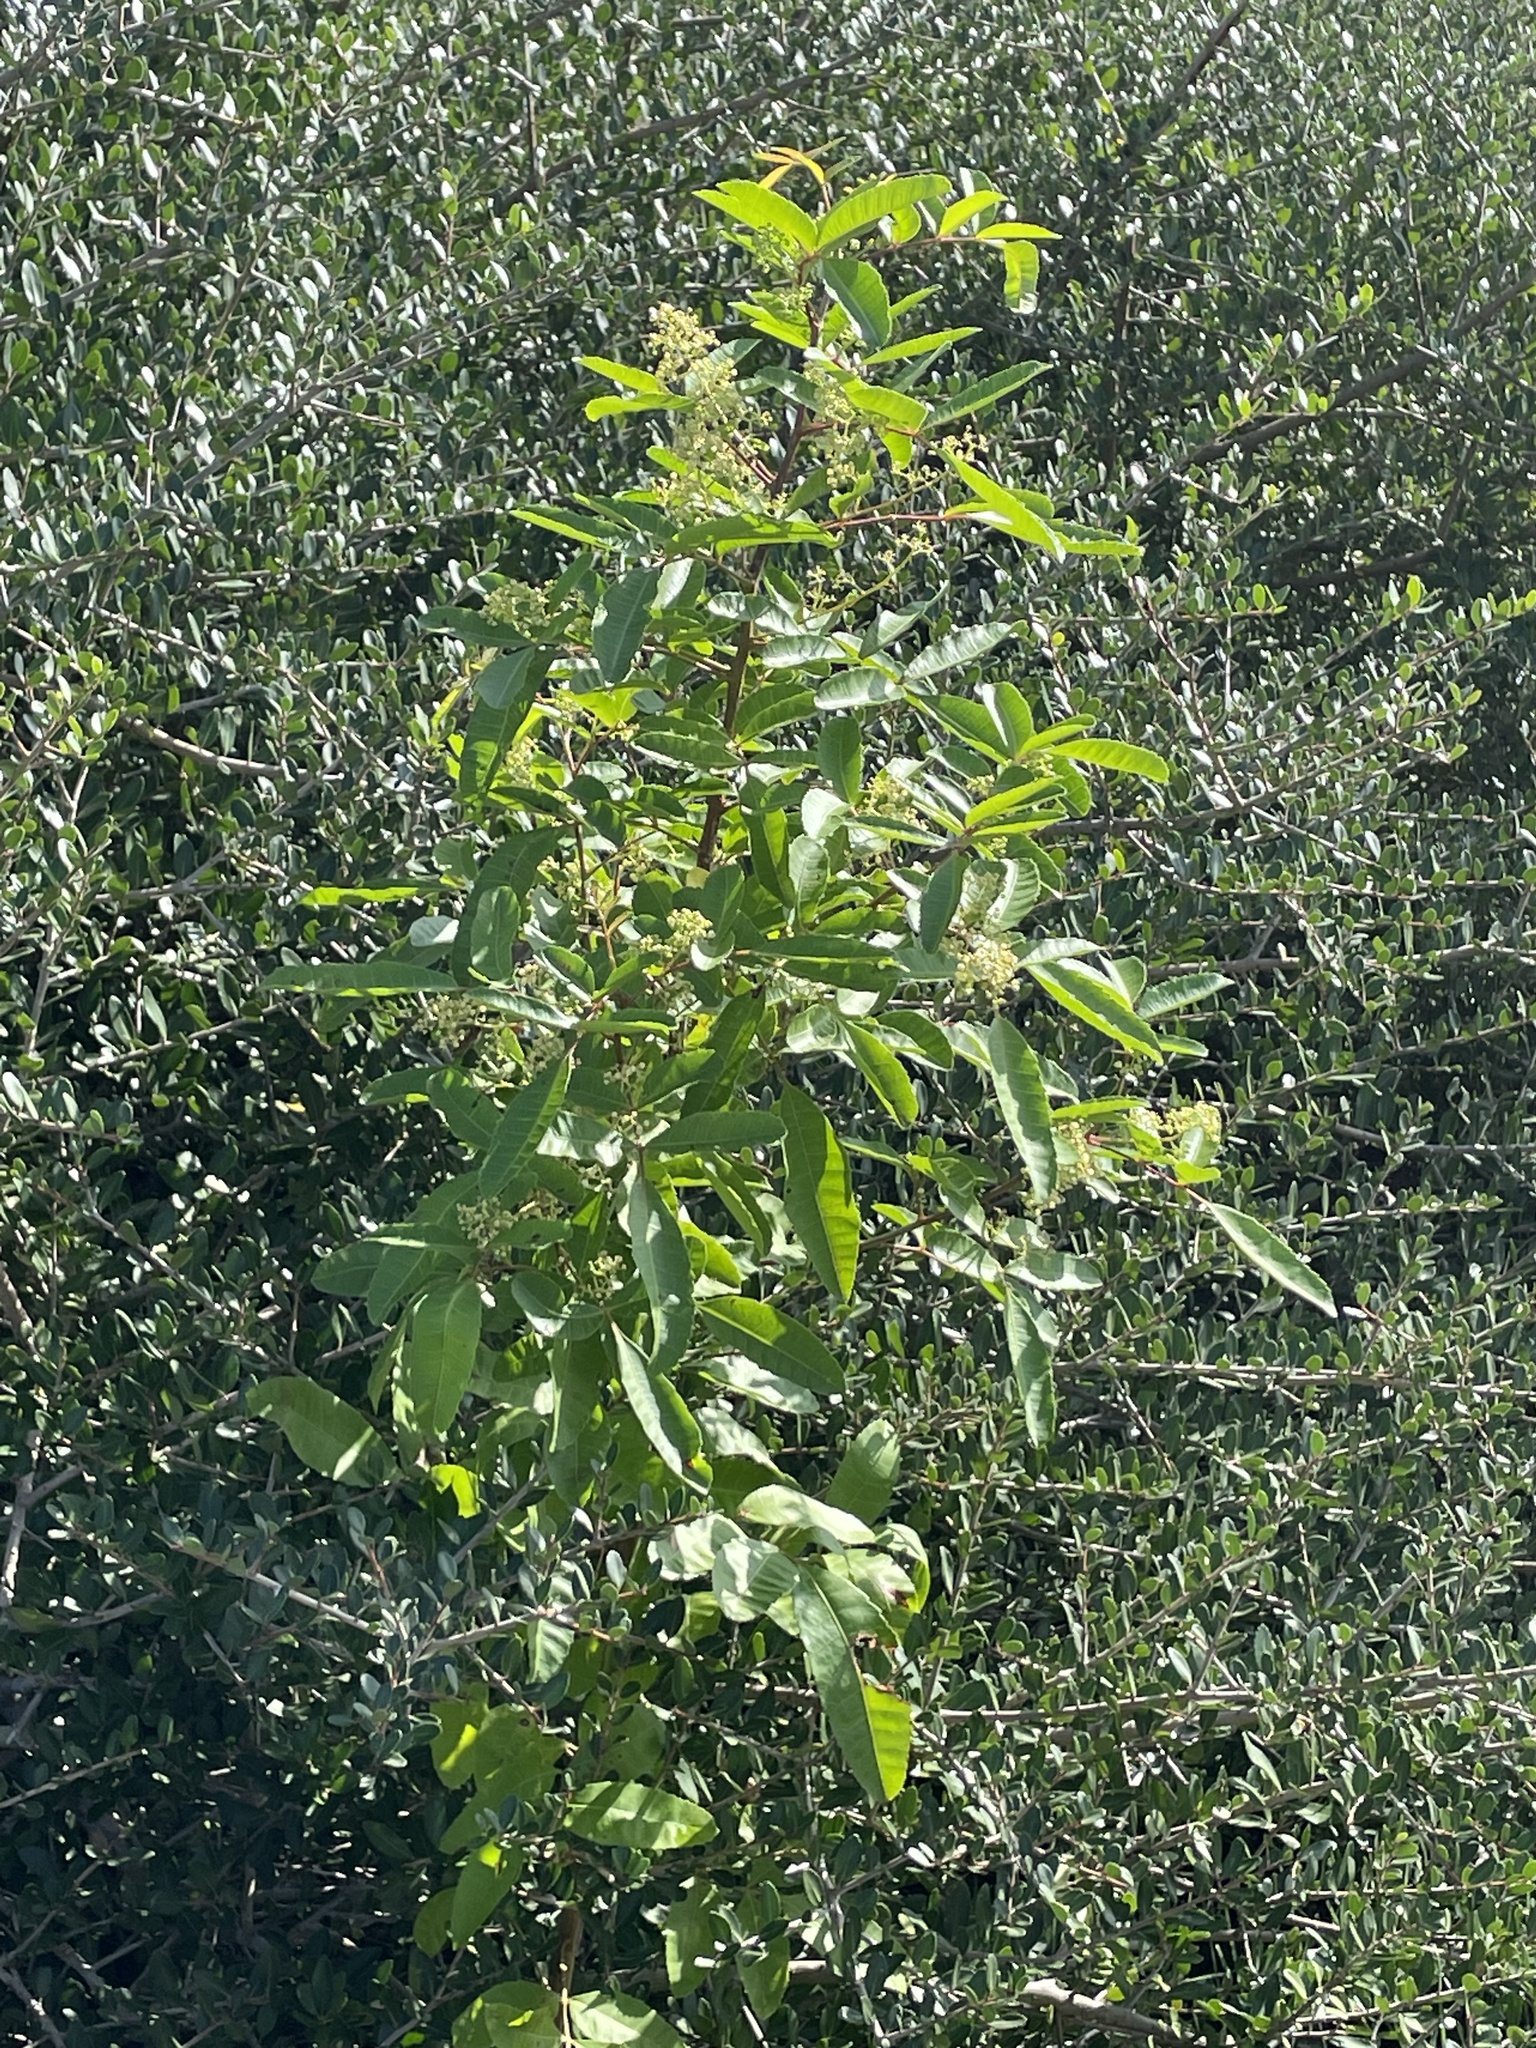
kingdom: Plantae
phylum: Tracheophyta
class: Magnoliopsida
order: Sapindales
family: Anacardiaceae
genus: Schinus
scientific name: Schinus terebinthifolia
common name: Brazilian peppertree
